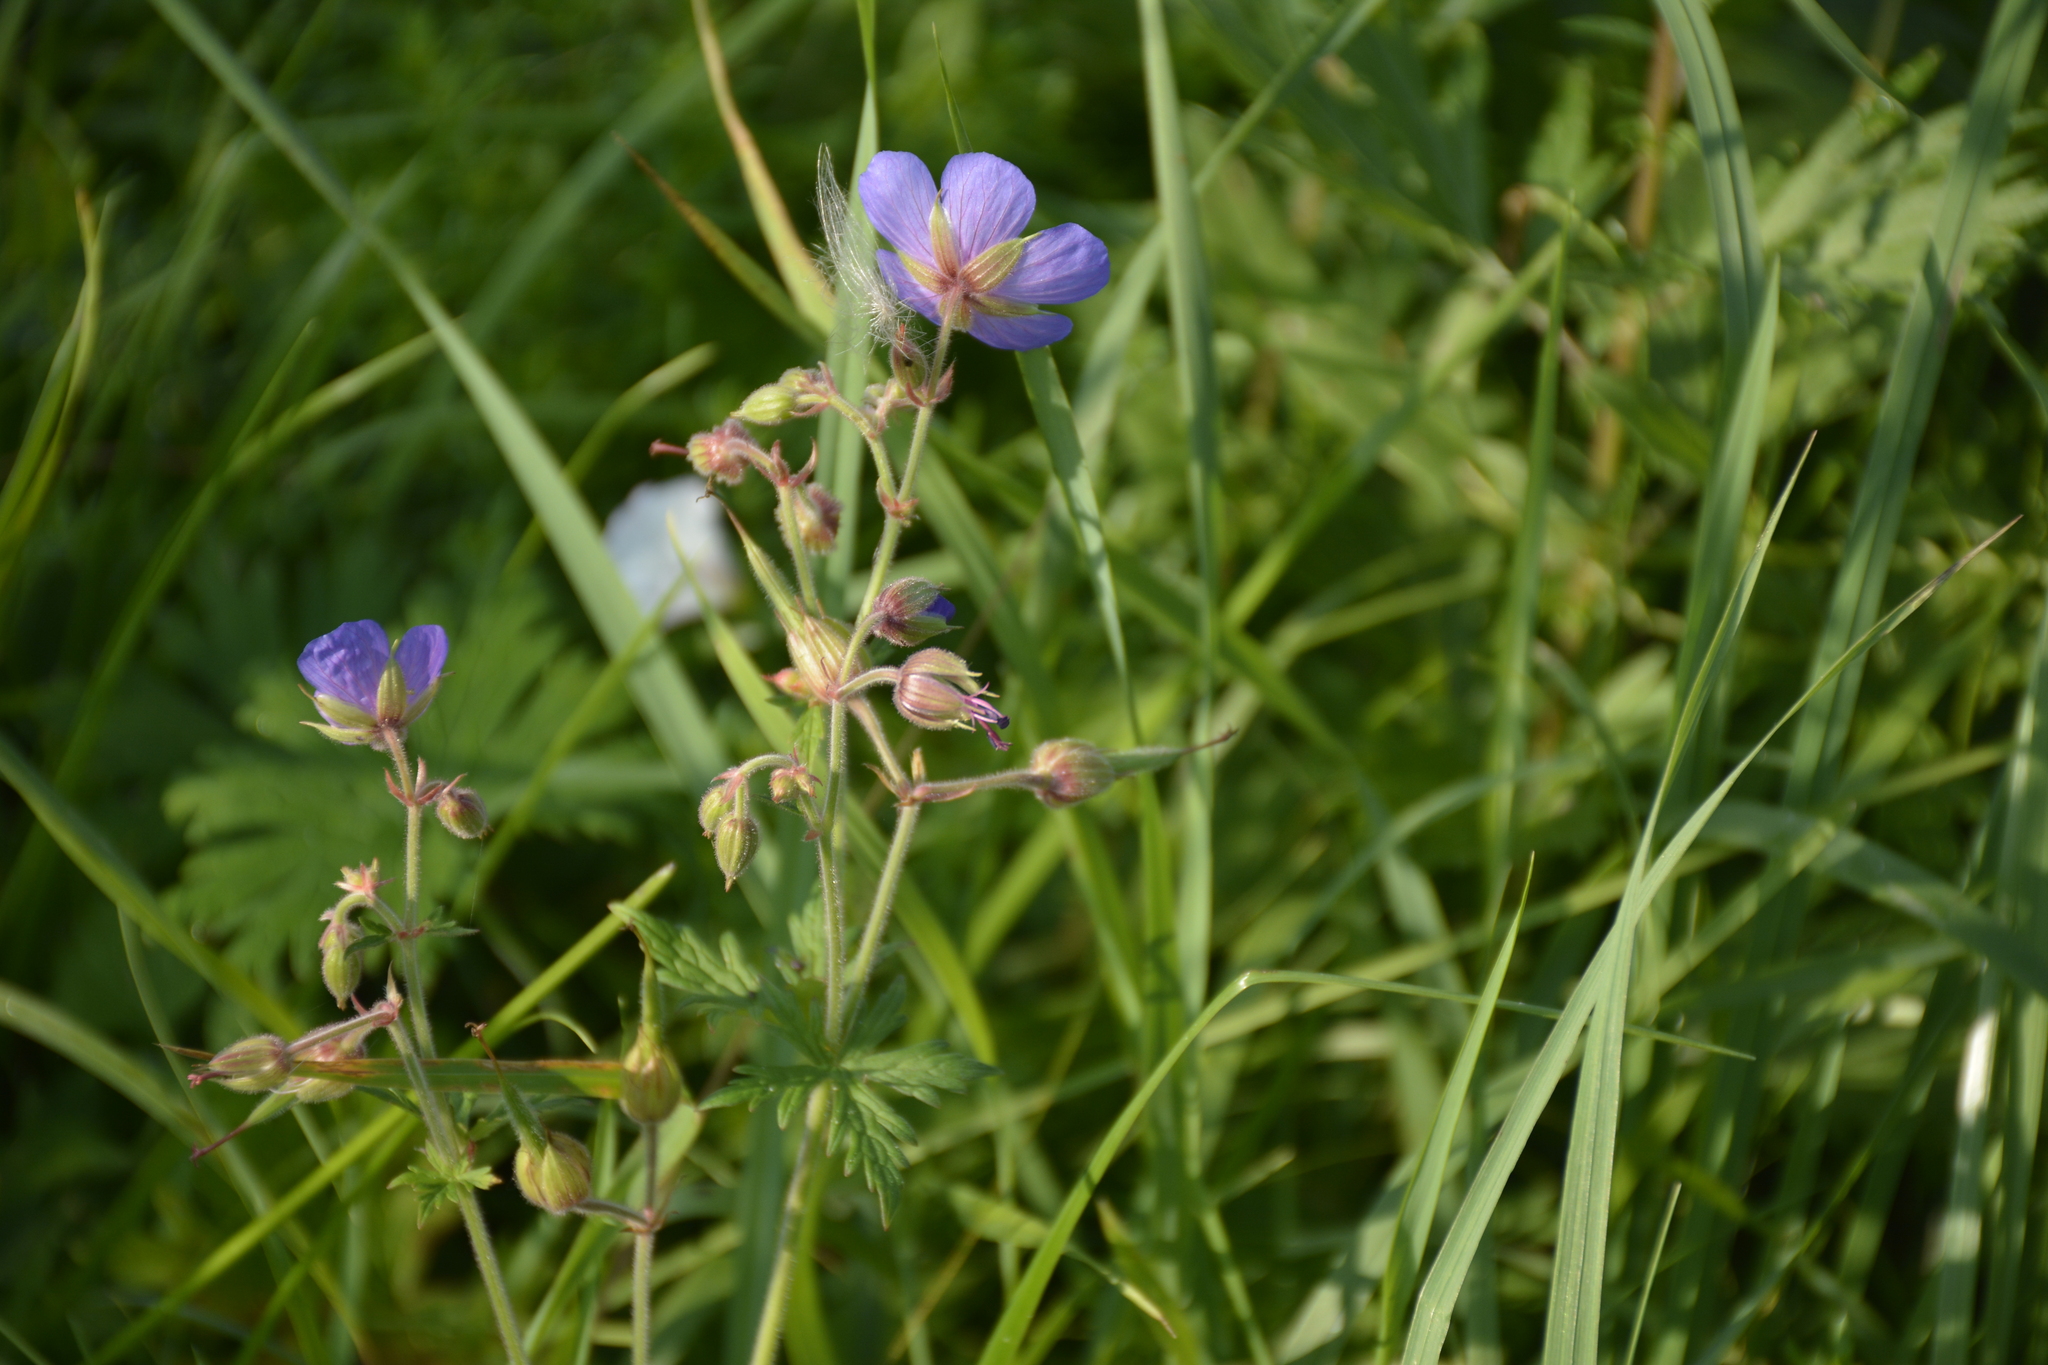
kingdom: Plantae
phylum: Tracheophyta
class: Magnoliopsida
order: Geraniales
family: Geraniaceae
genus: Geranium
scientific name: Geranium pratense
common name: Meadow crane's-bill
